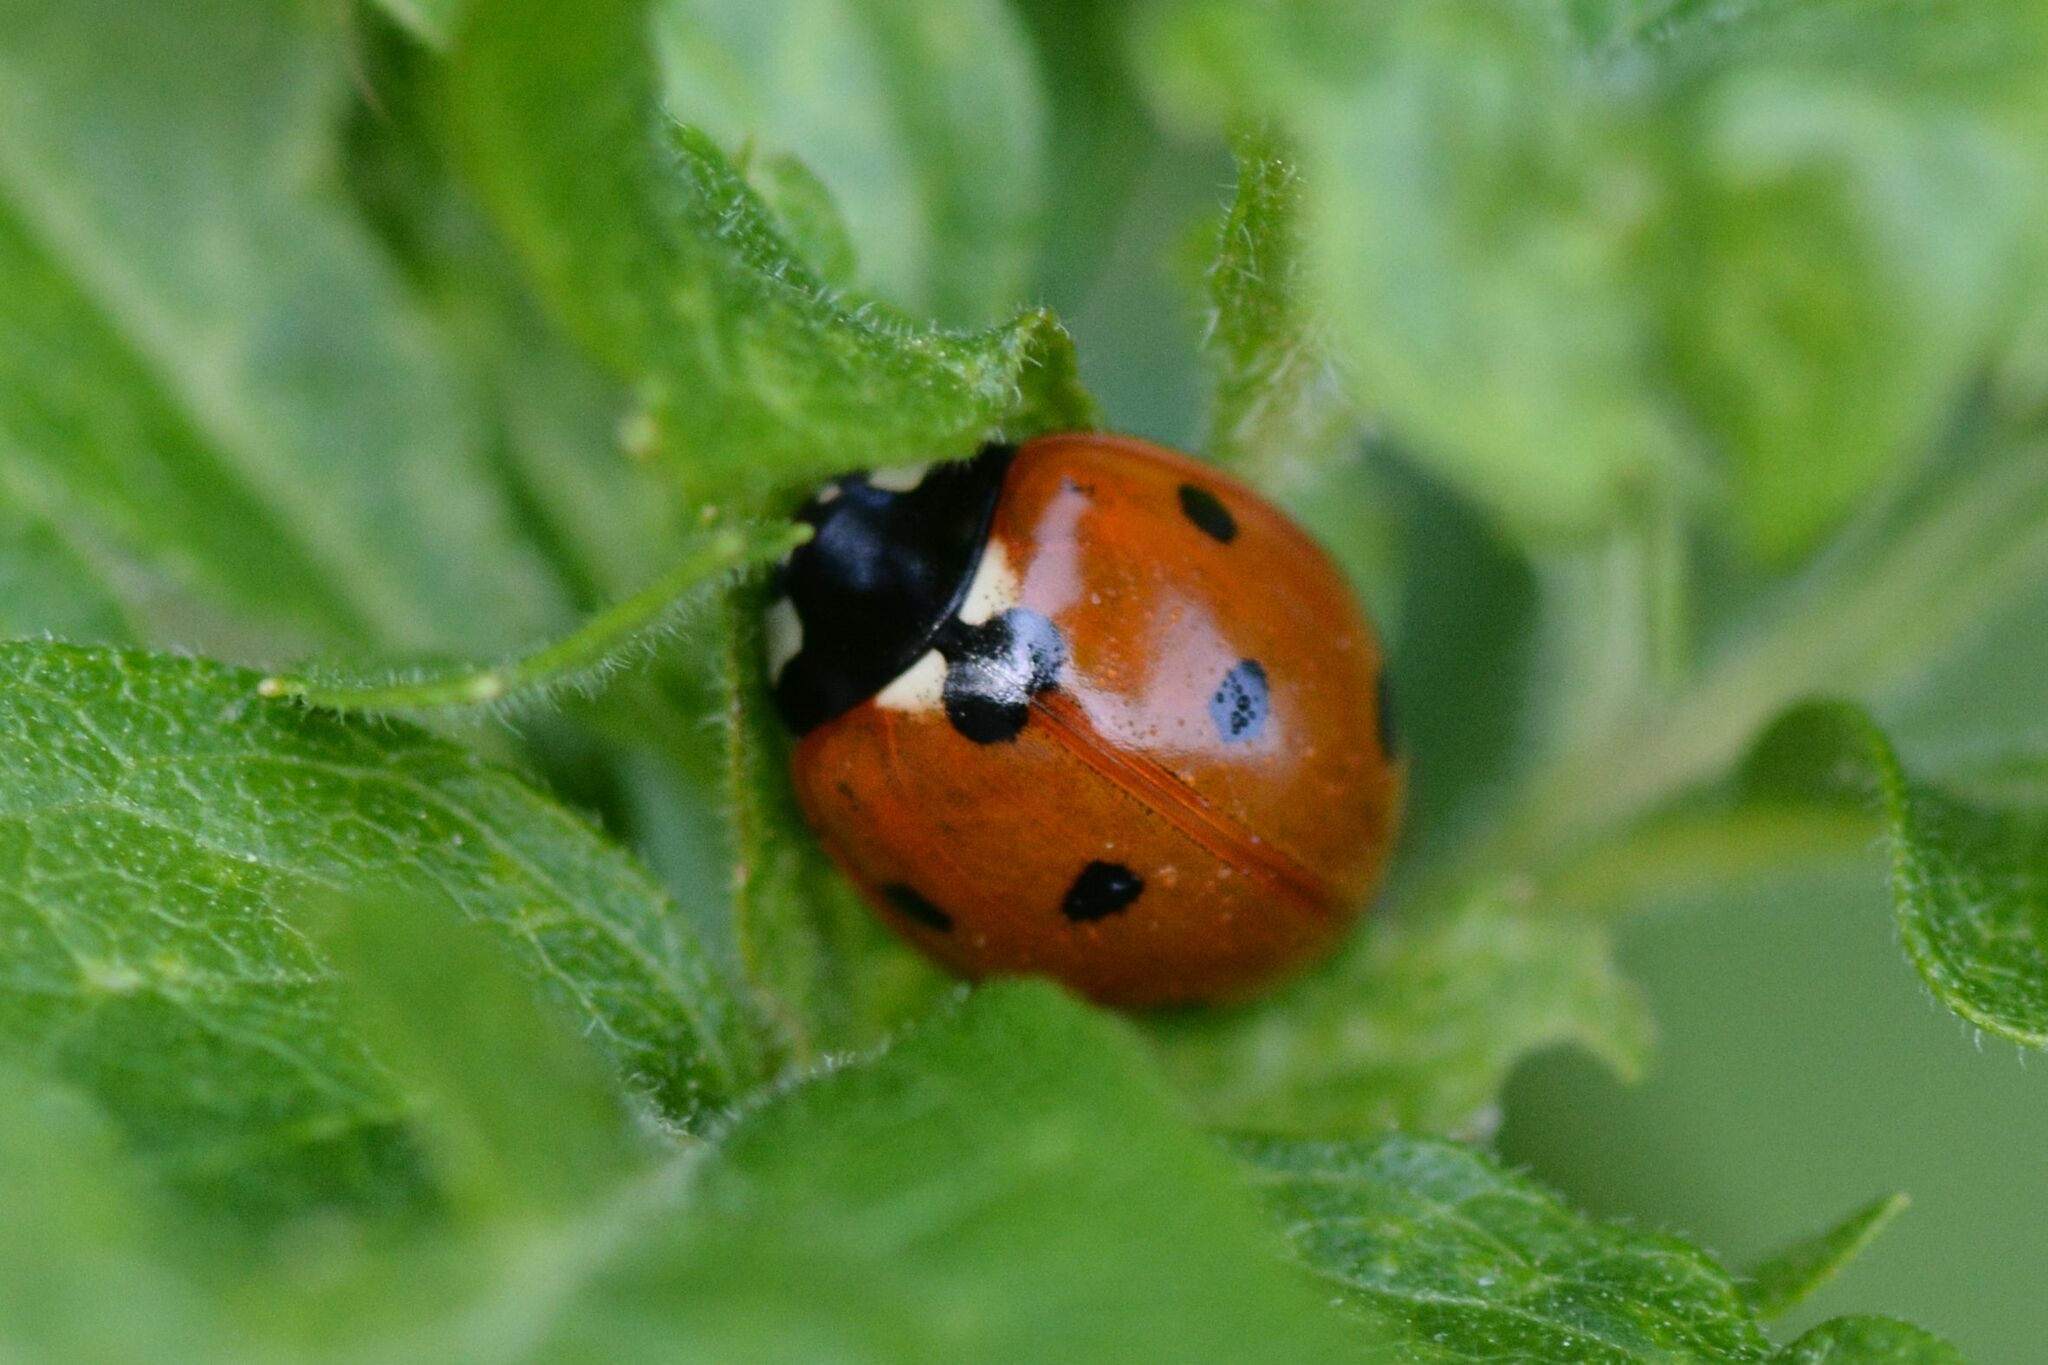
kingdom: Animalia
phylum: Arthropoda
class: Insecta
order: Coleoptera
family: Coccinellidae
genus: Coccinella
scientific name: Coccinella septempunctata
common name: Sevenspotted lady beetle
